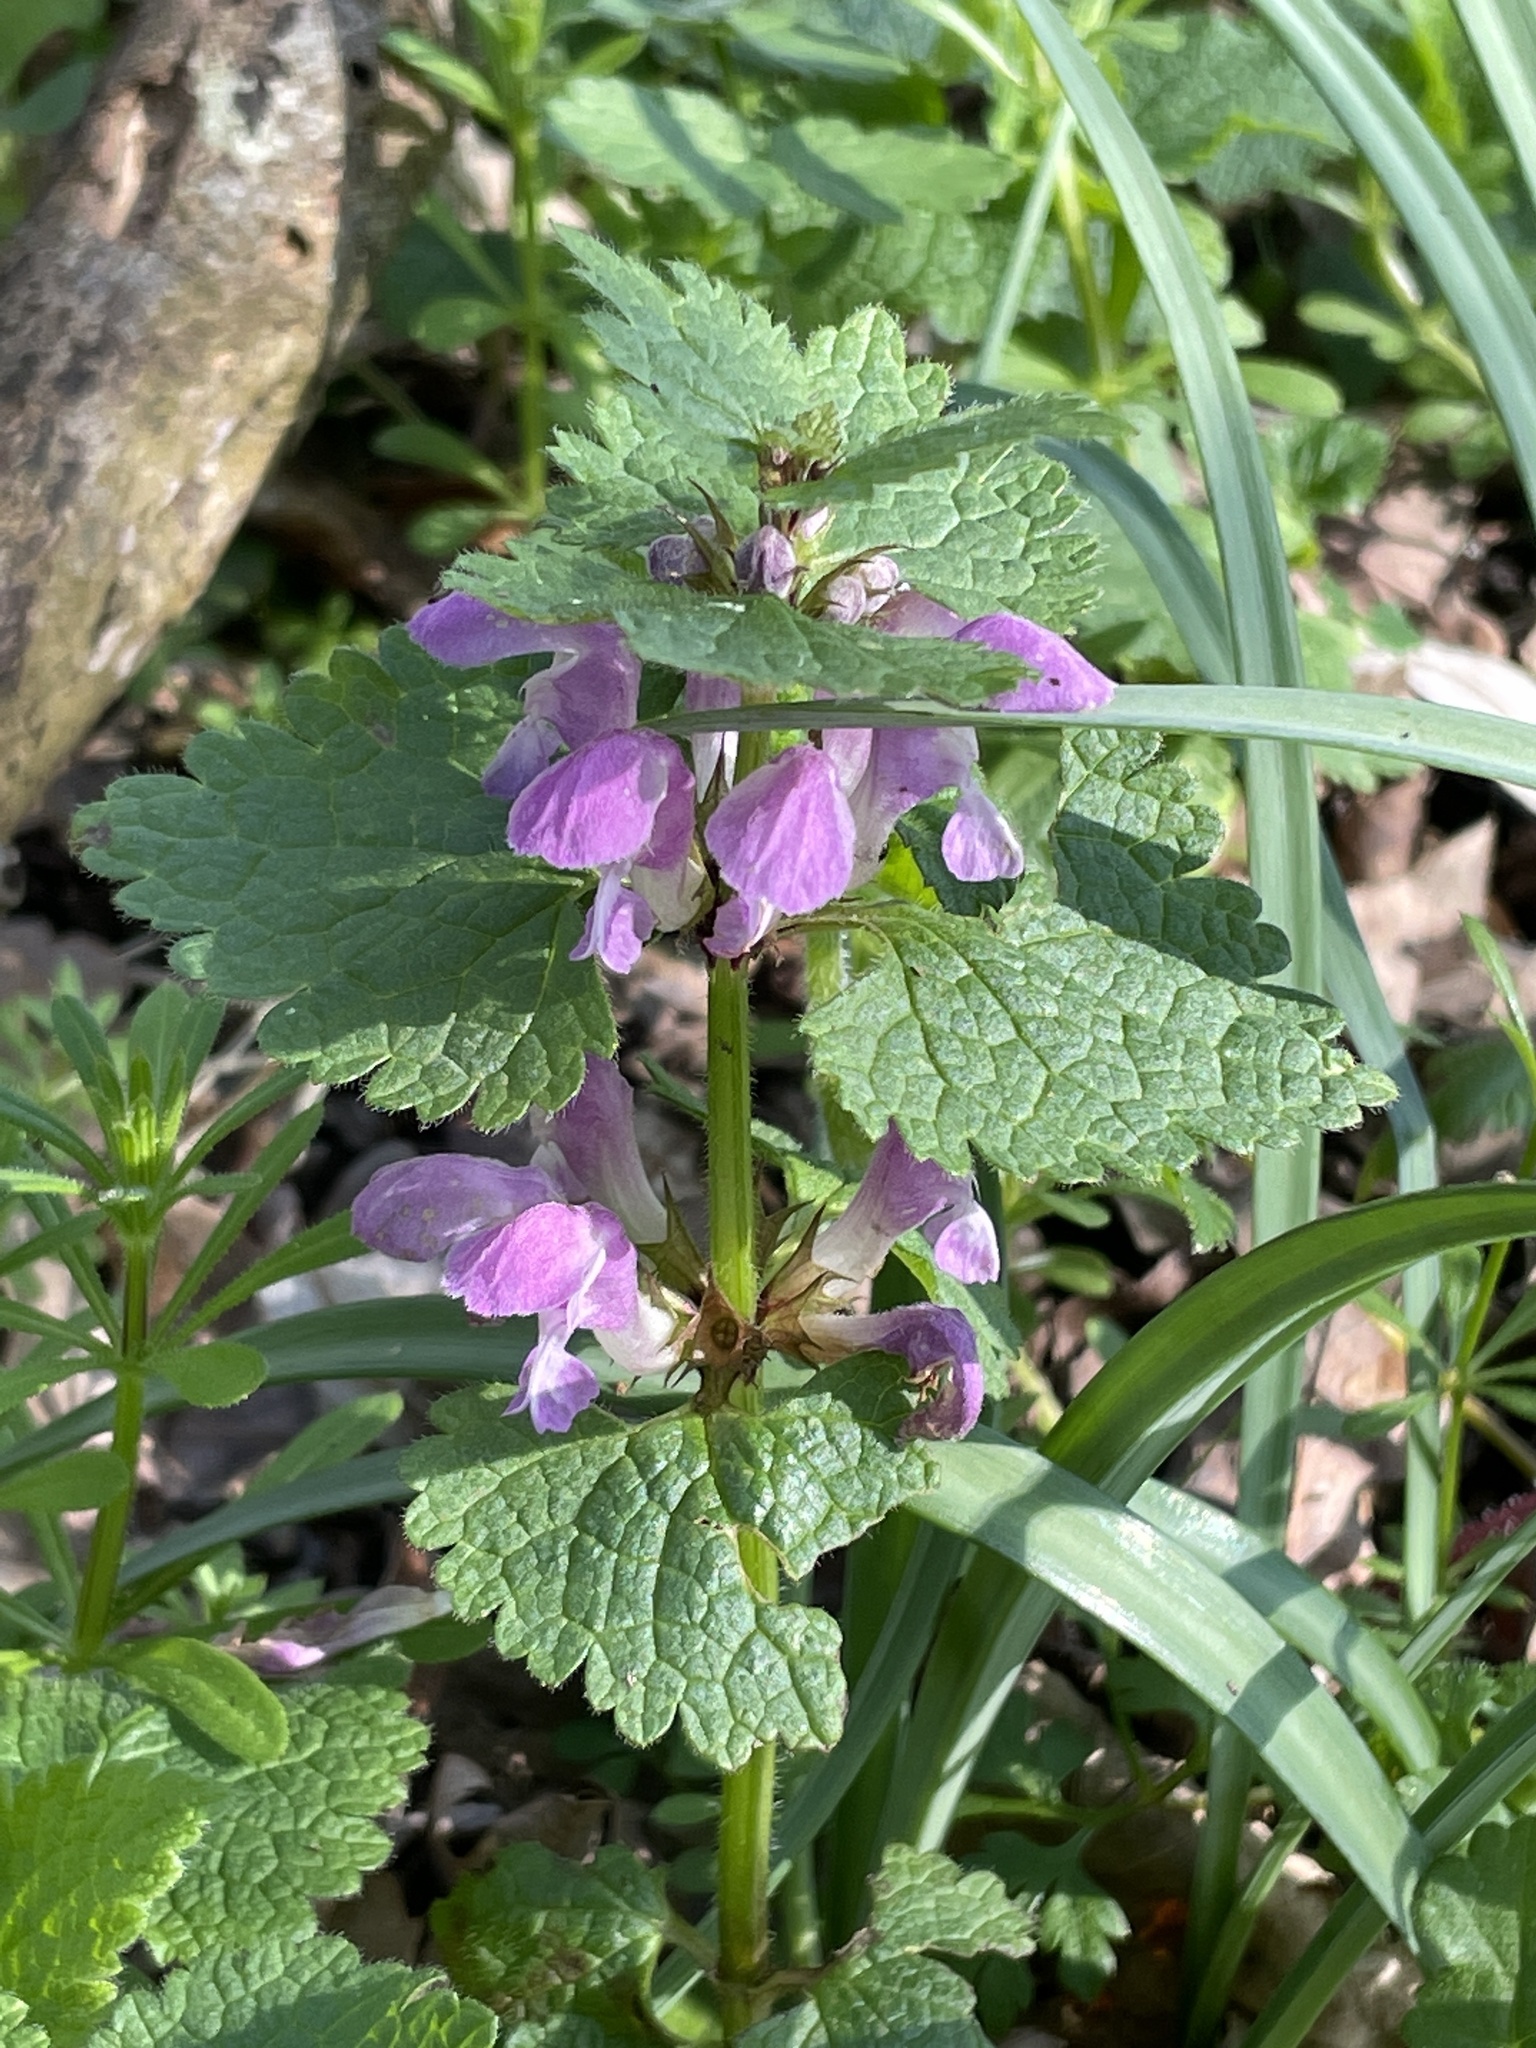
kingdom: Plantae
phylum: Tracheophyta
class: Magnoliopsida
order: Lamiales
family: Lamiaceae
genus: Lamium
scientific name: Lamium maculatum
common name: Spotted dead-nettle
